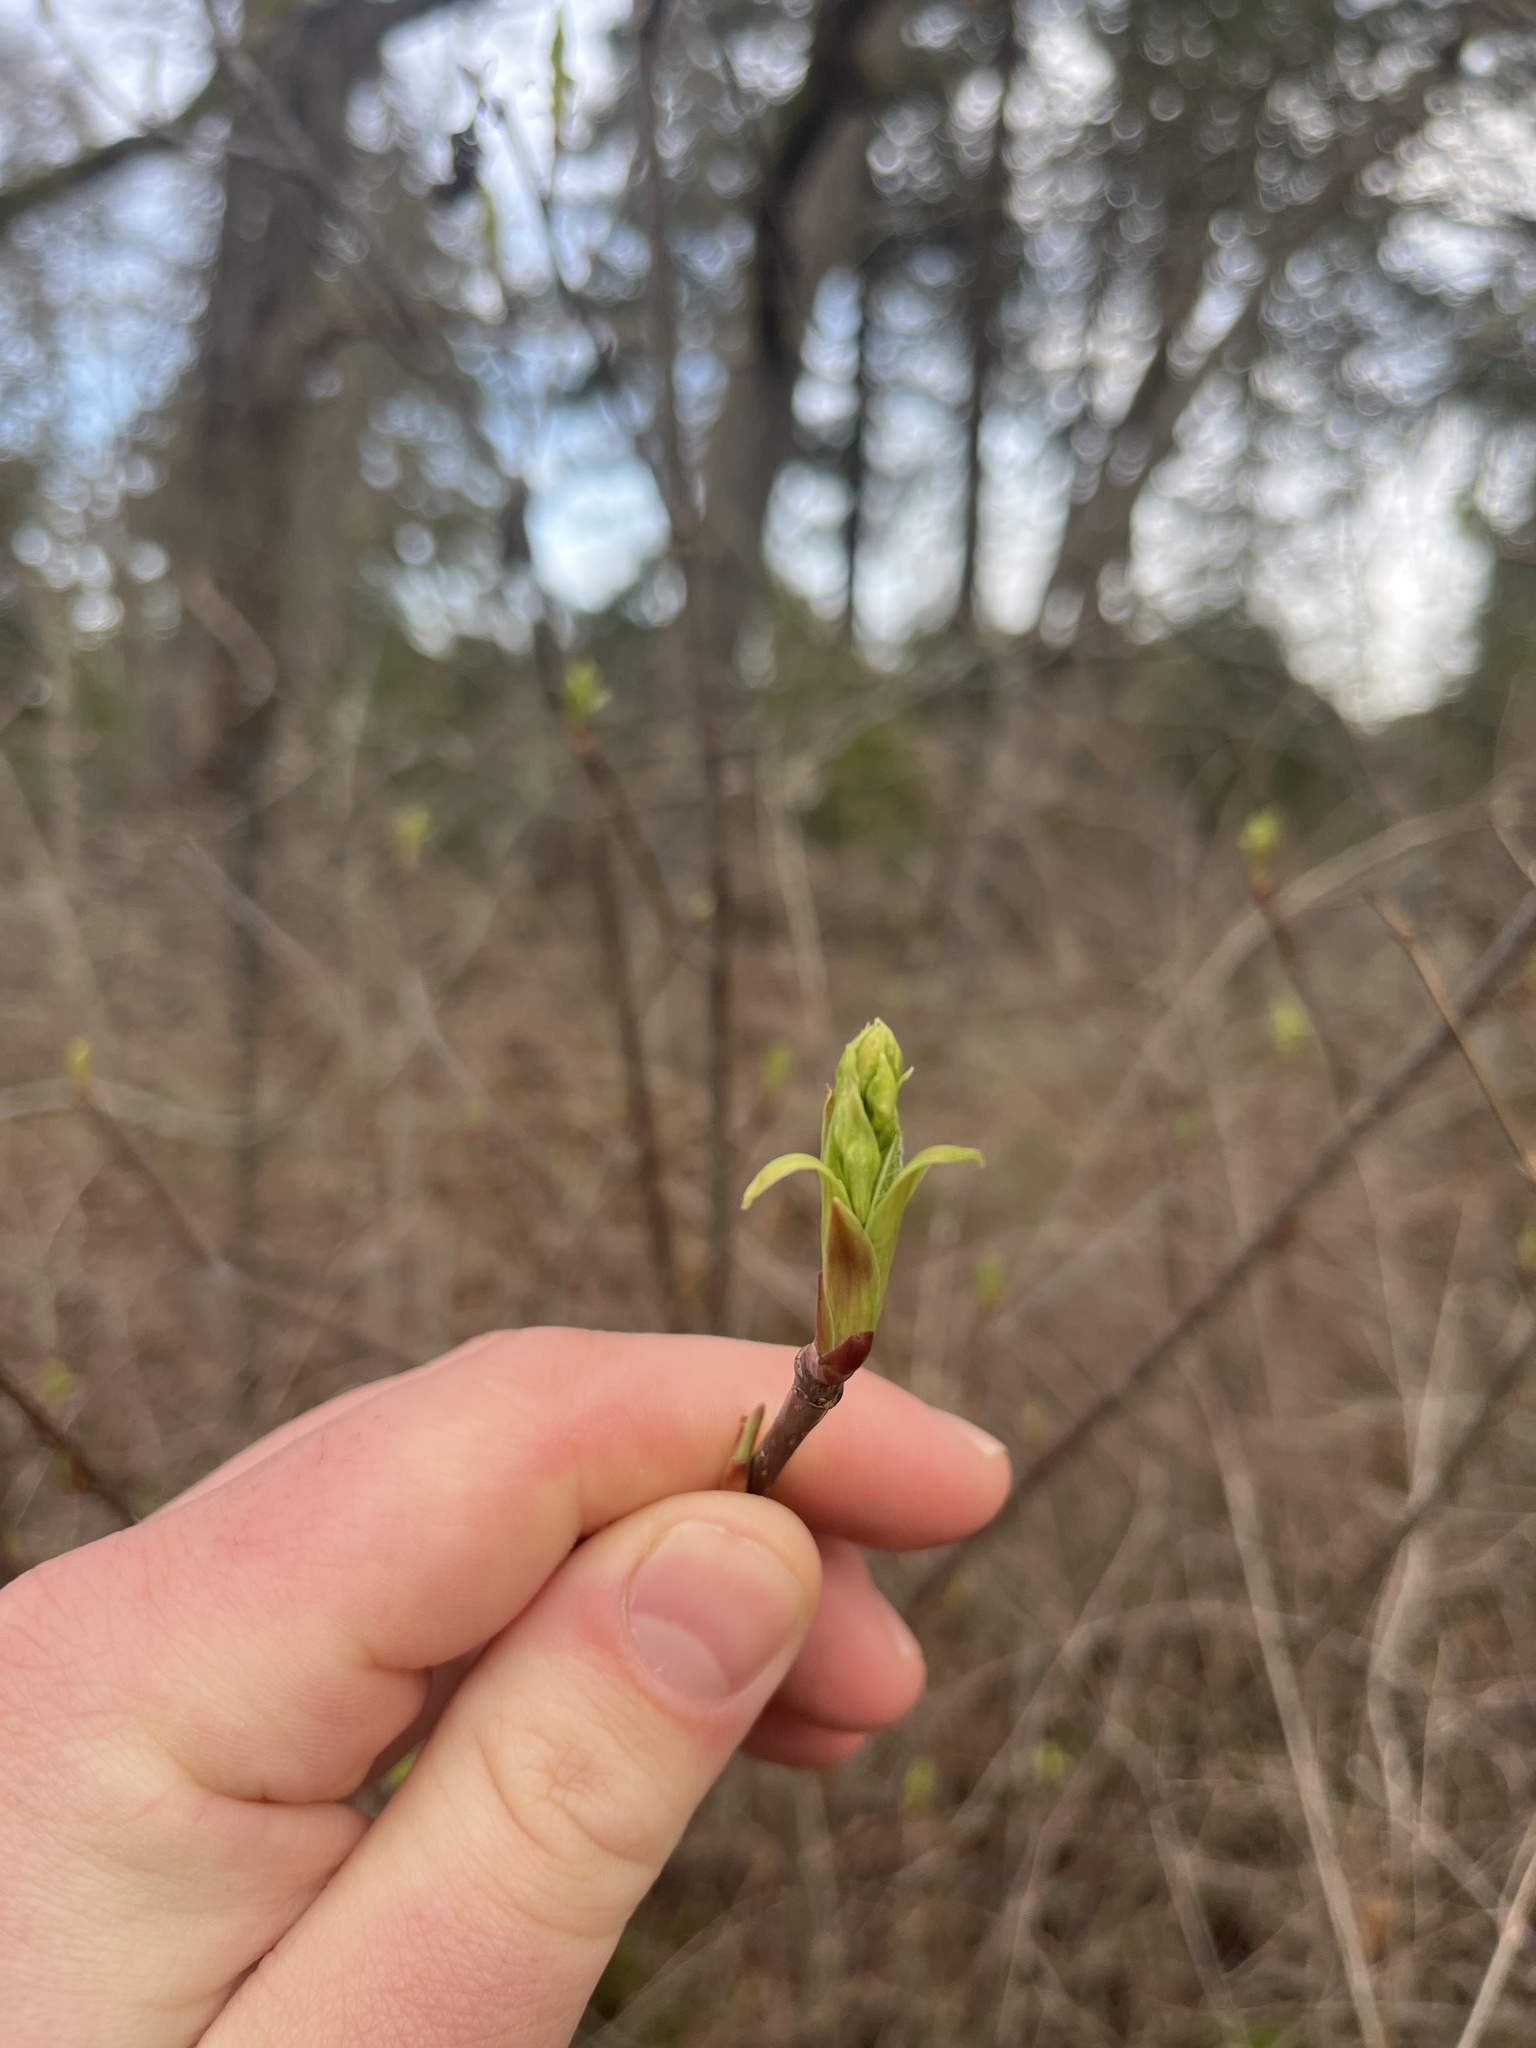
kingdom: Plantae
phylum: Tracheophyta
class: Magnoliopsida
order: Rosales
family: Rosaceae
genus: Oemleria
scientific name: Oemleria cerasiformis
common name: Osoberry
